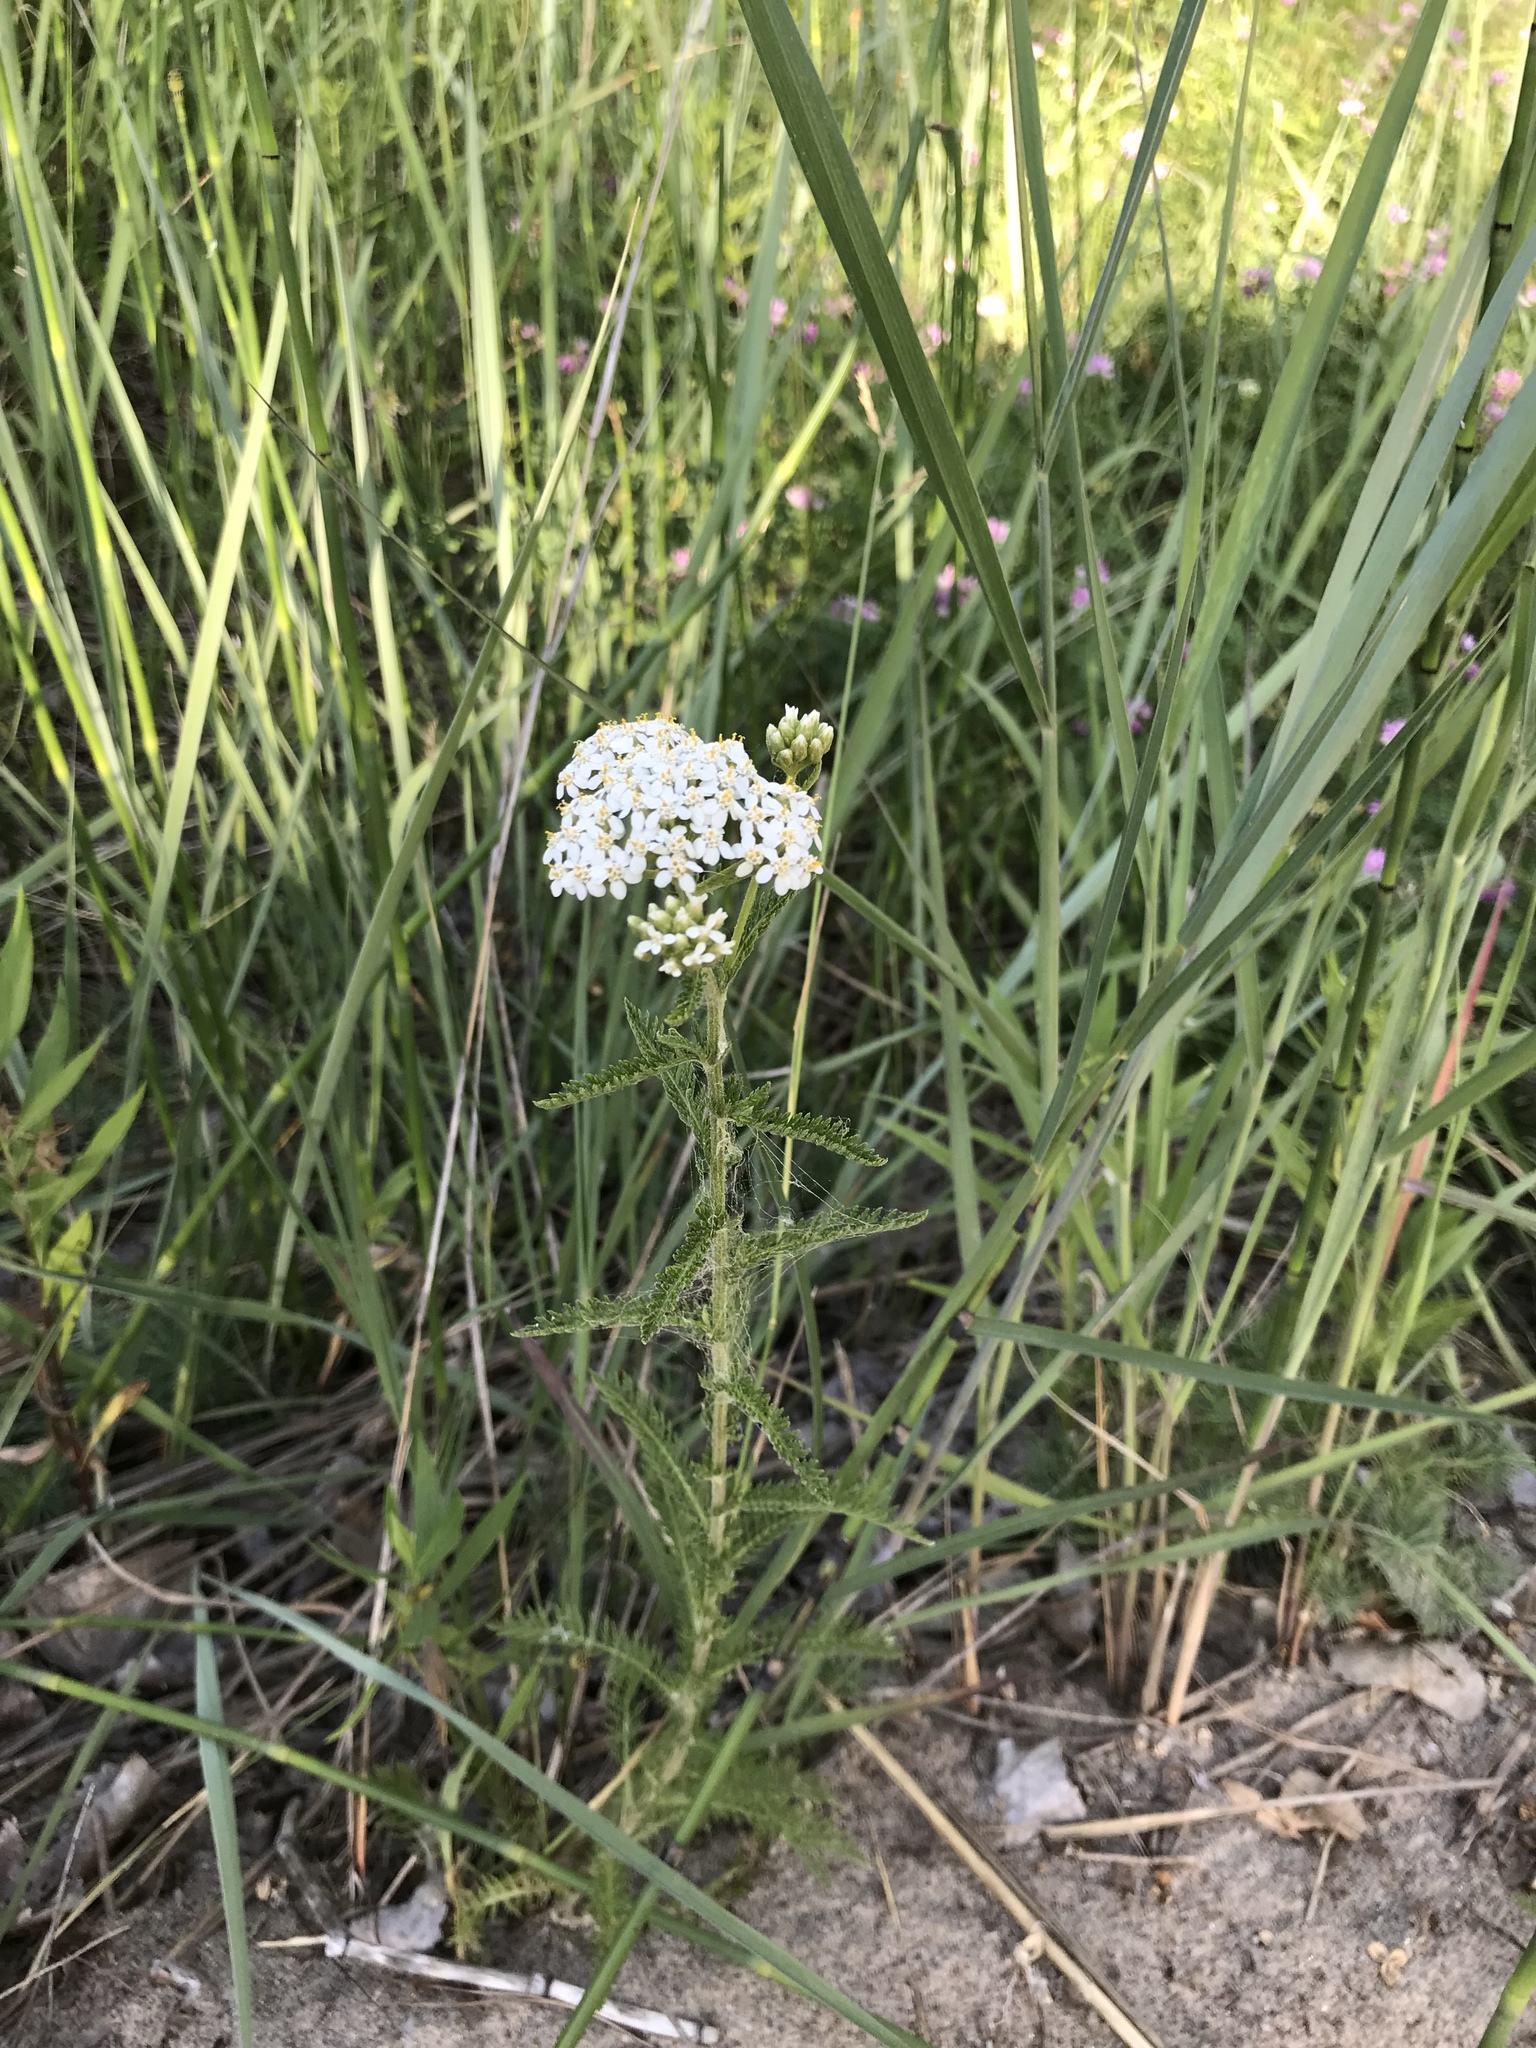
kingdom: Plantae
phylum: Tracheophyta
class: Magnoliopsida
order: Asterales
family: Asteraceae
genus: Achillea
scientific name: Achillea millefolium
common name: Yarrow
